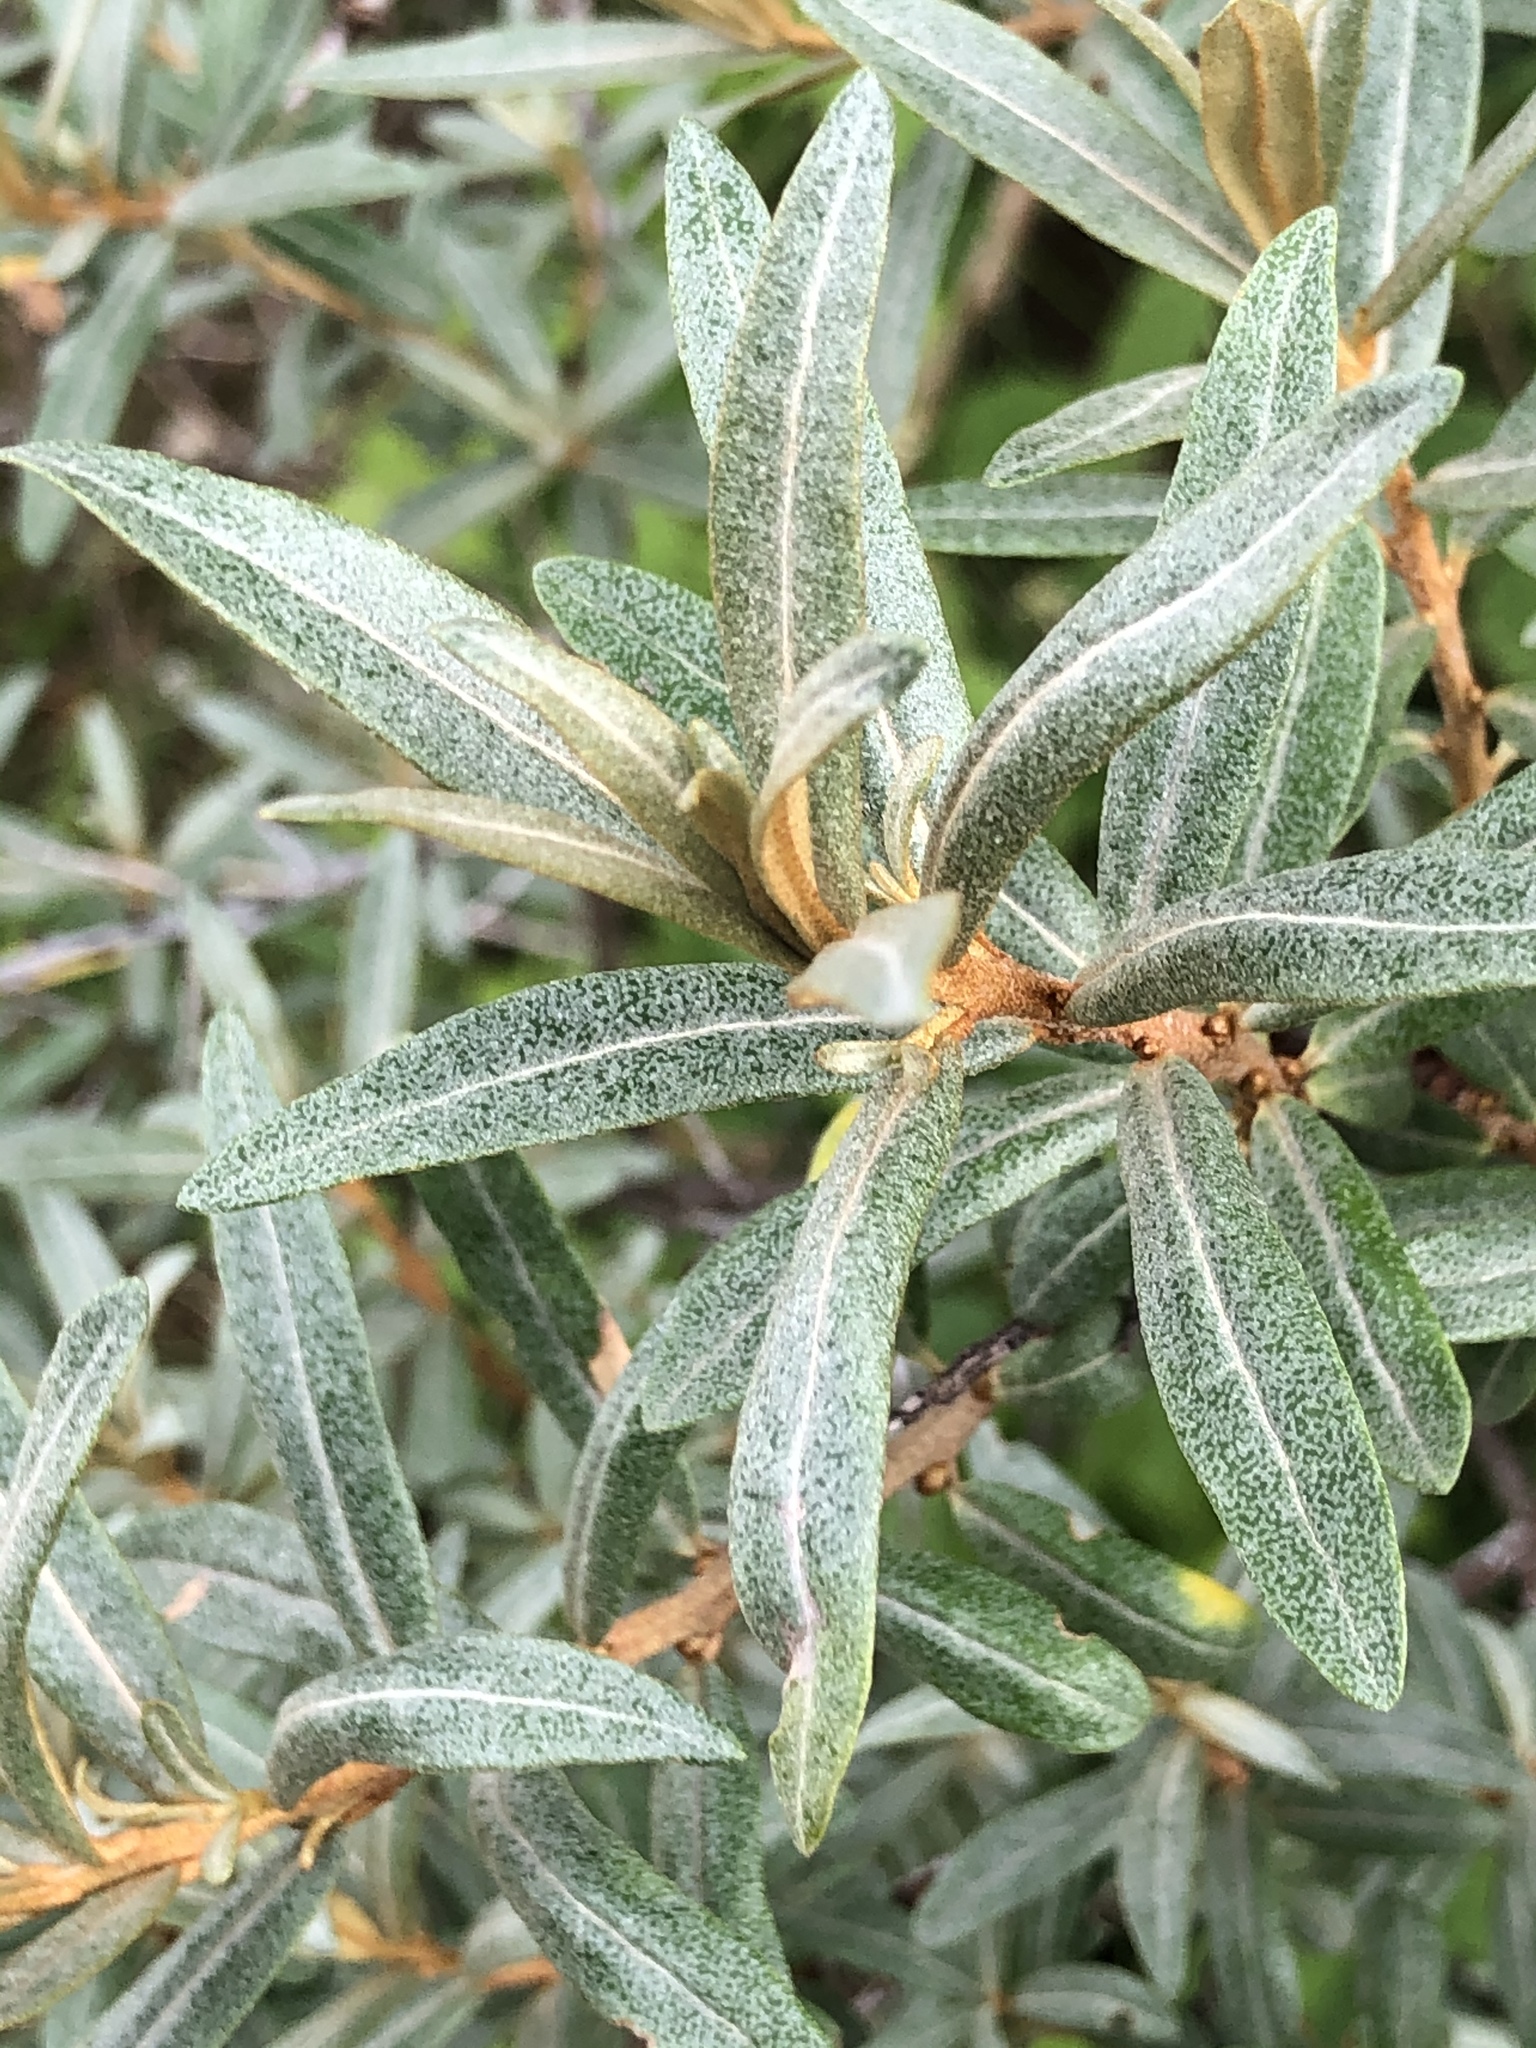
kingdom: Plantae
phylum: Tracheophyta
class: Magnoliopsida
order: Rosales
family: Elaeagnaceae
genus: Hippophae
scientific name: Hippophae rhamnoides
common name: Sea-buckthorn
